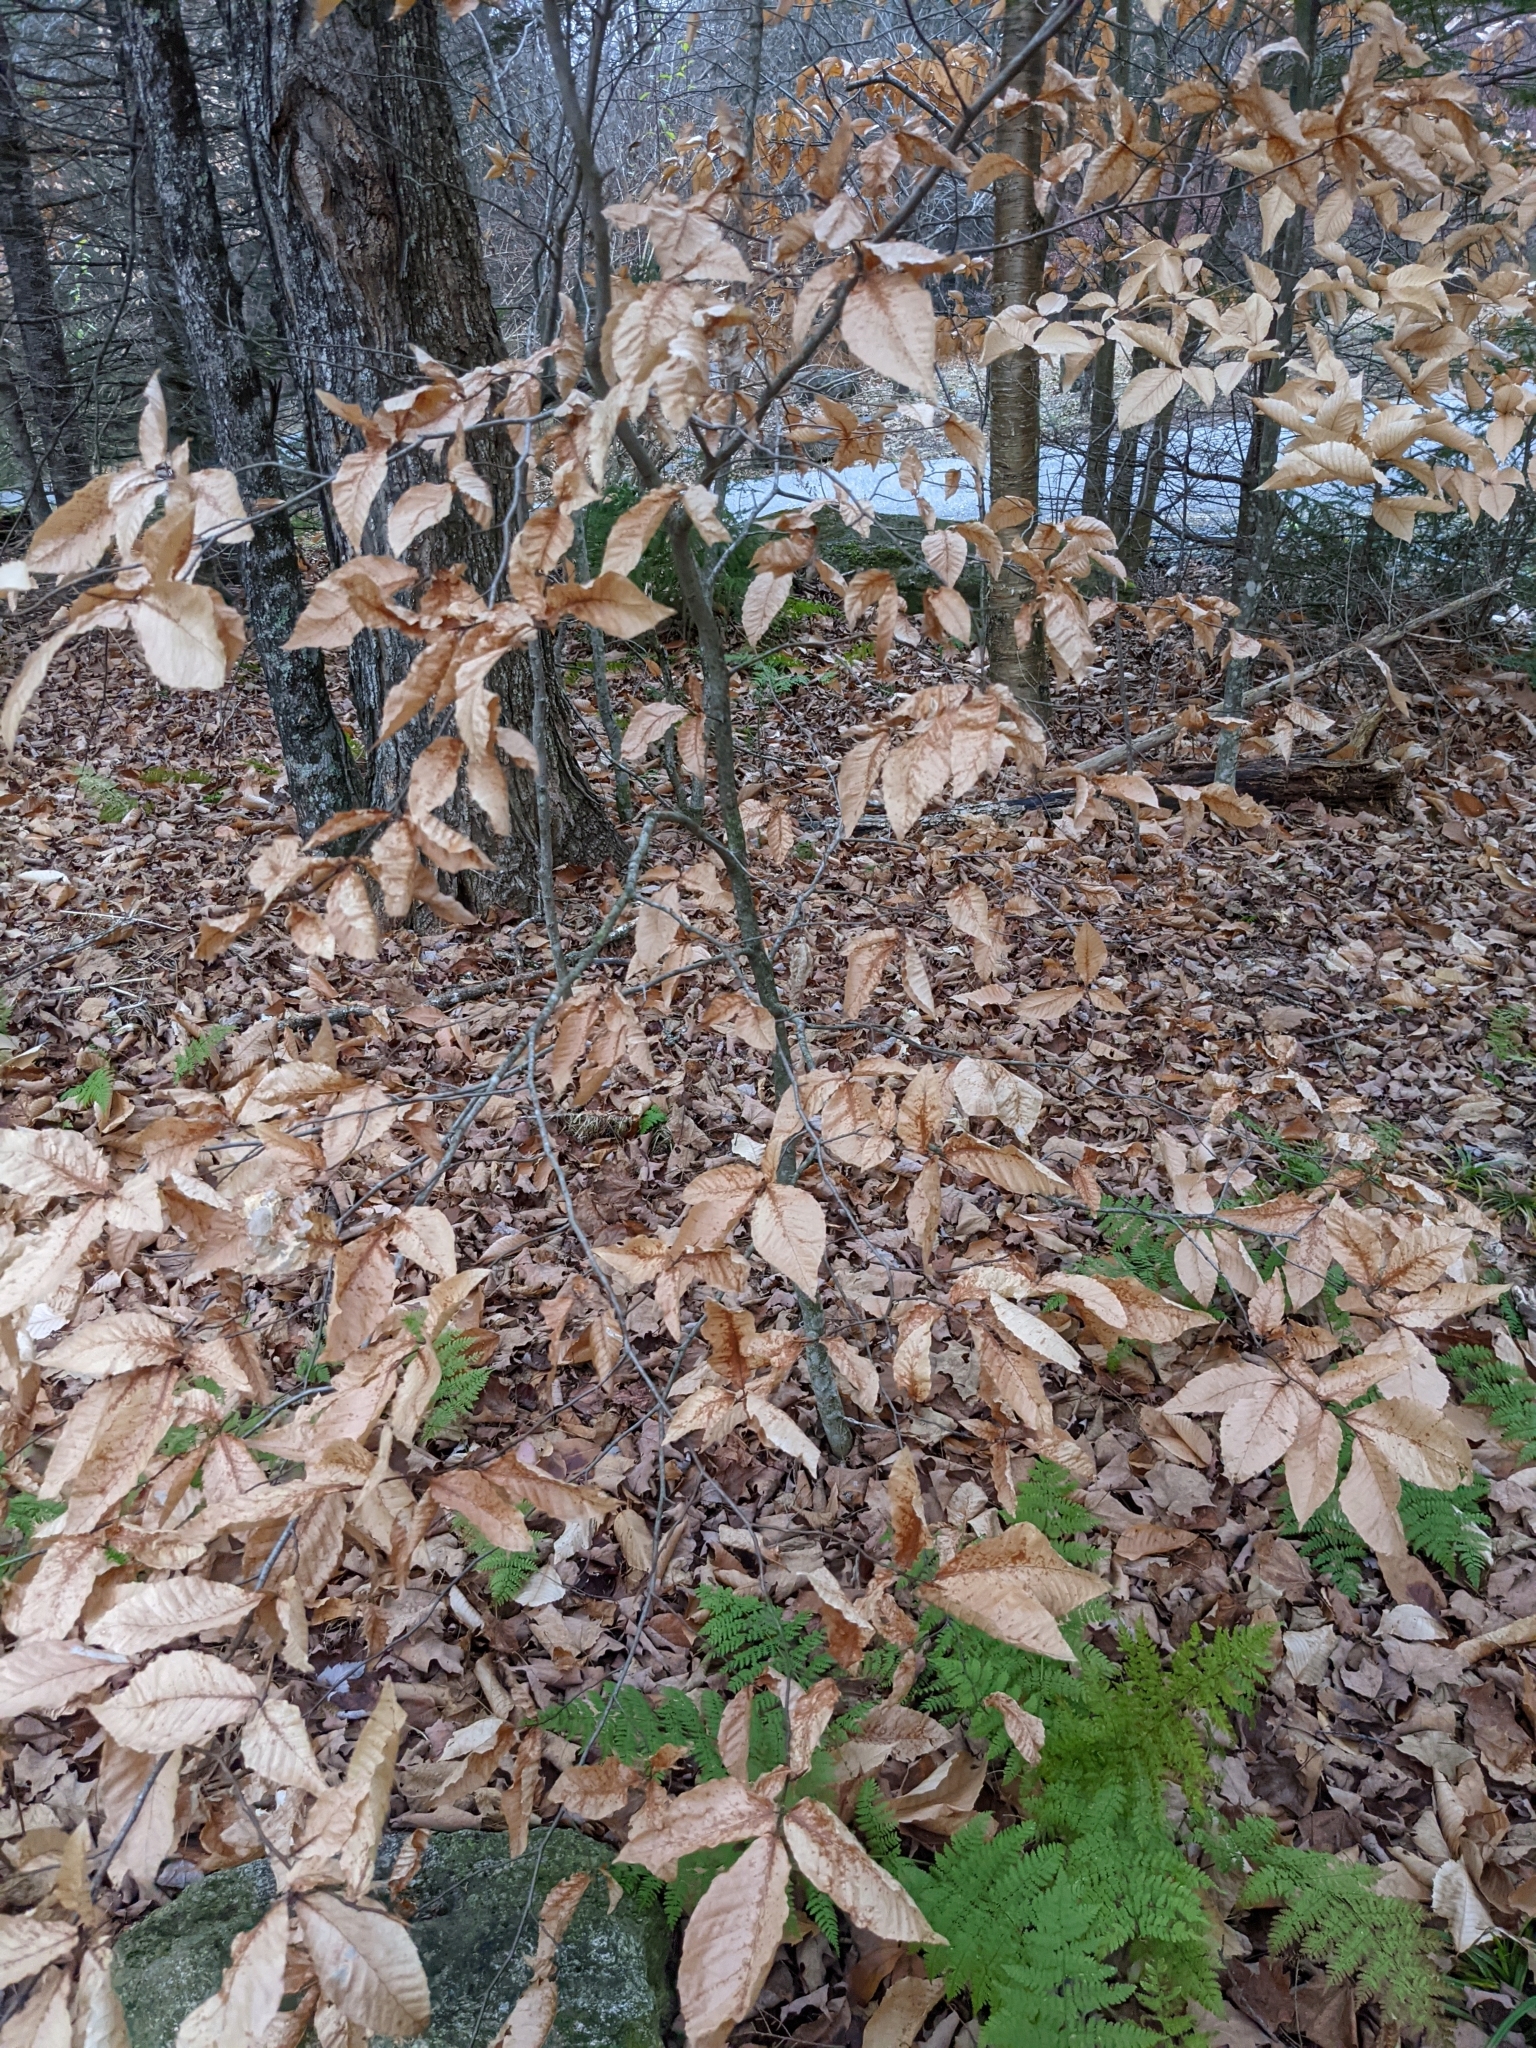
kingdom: Plantae
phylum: Tracheophyta
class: Magnoliopsida
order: Fagales
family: Fagaceae
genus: Fagus
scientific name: Fagus grandifolia
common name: American beech
